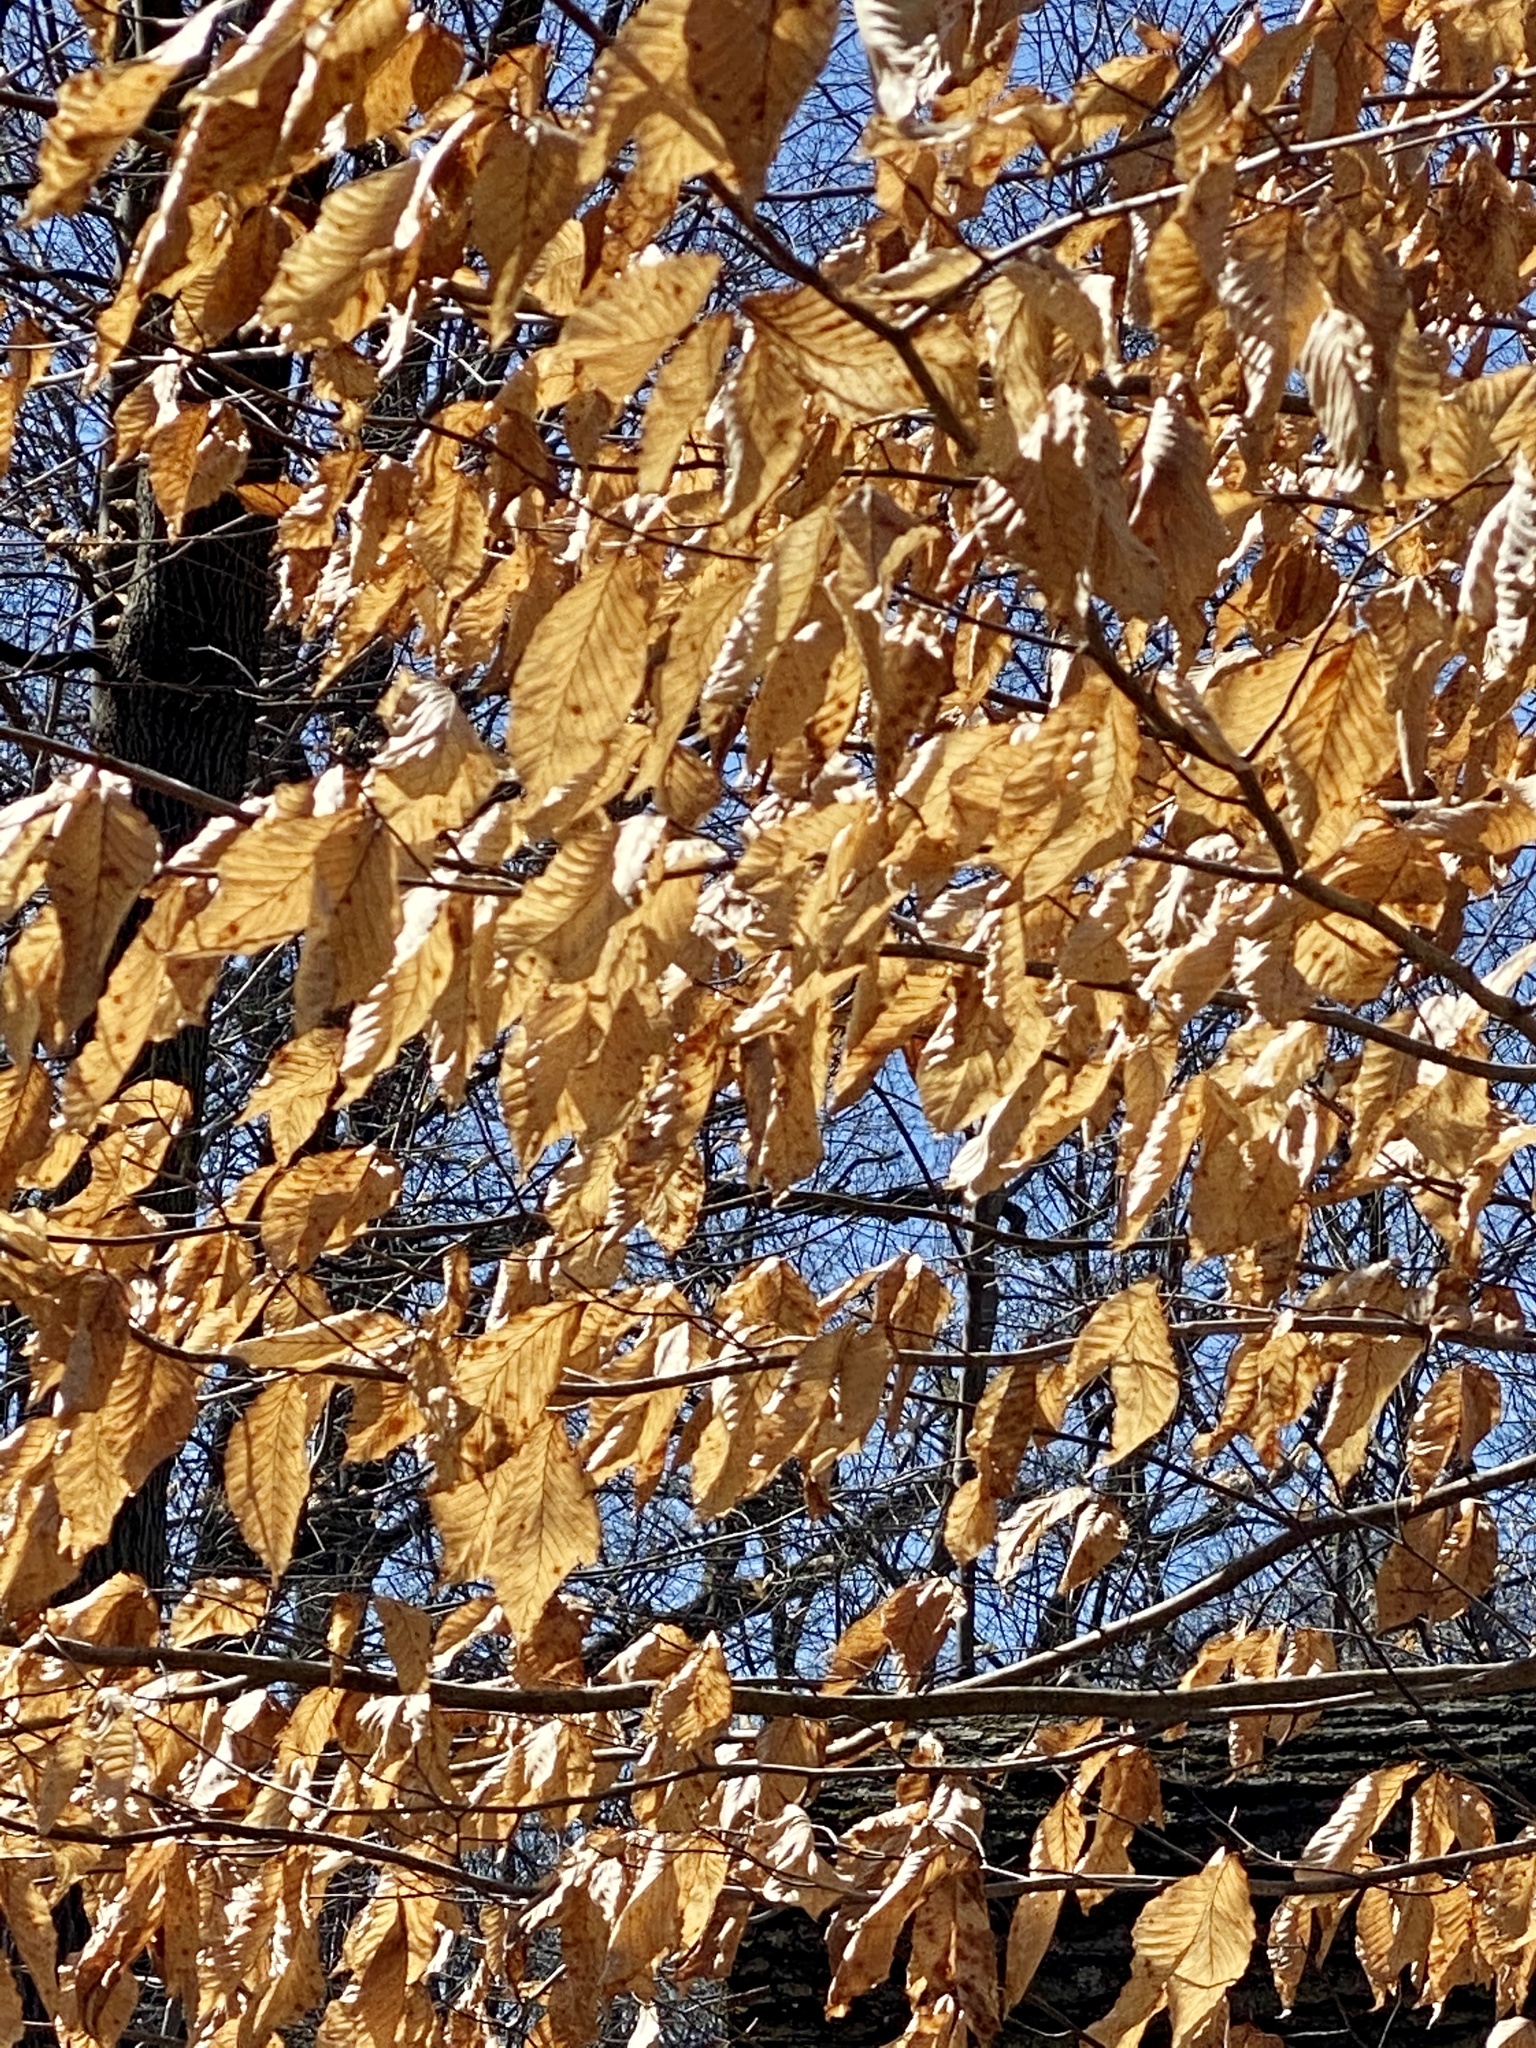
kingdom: Plantae
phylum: Tracheophyta
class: Magnoliopsida
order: Fagales
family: Fagaceae
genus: Fagus
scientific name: Fagus grandifolia
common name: American beech
